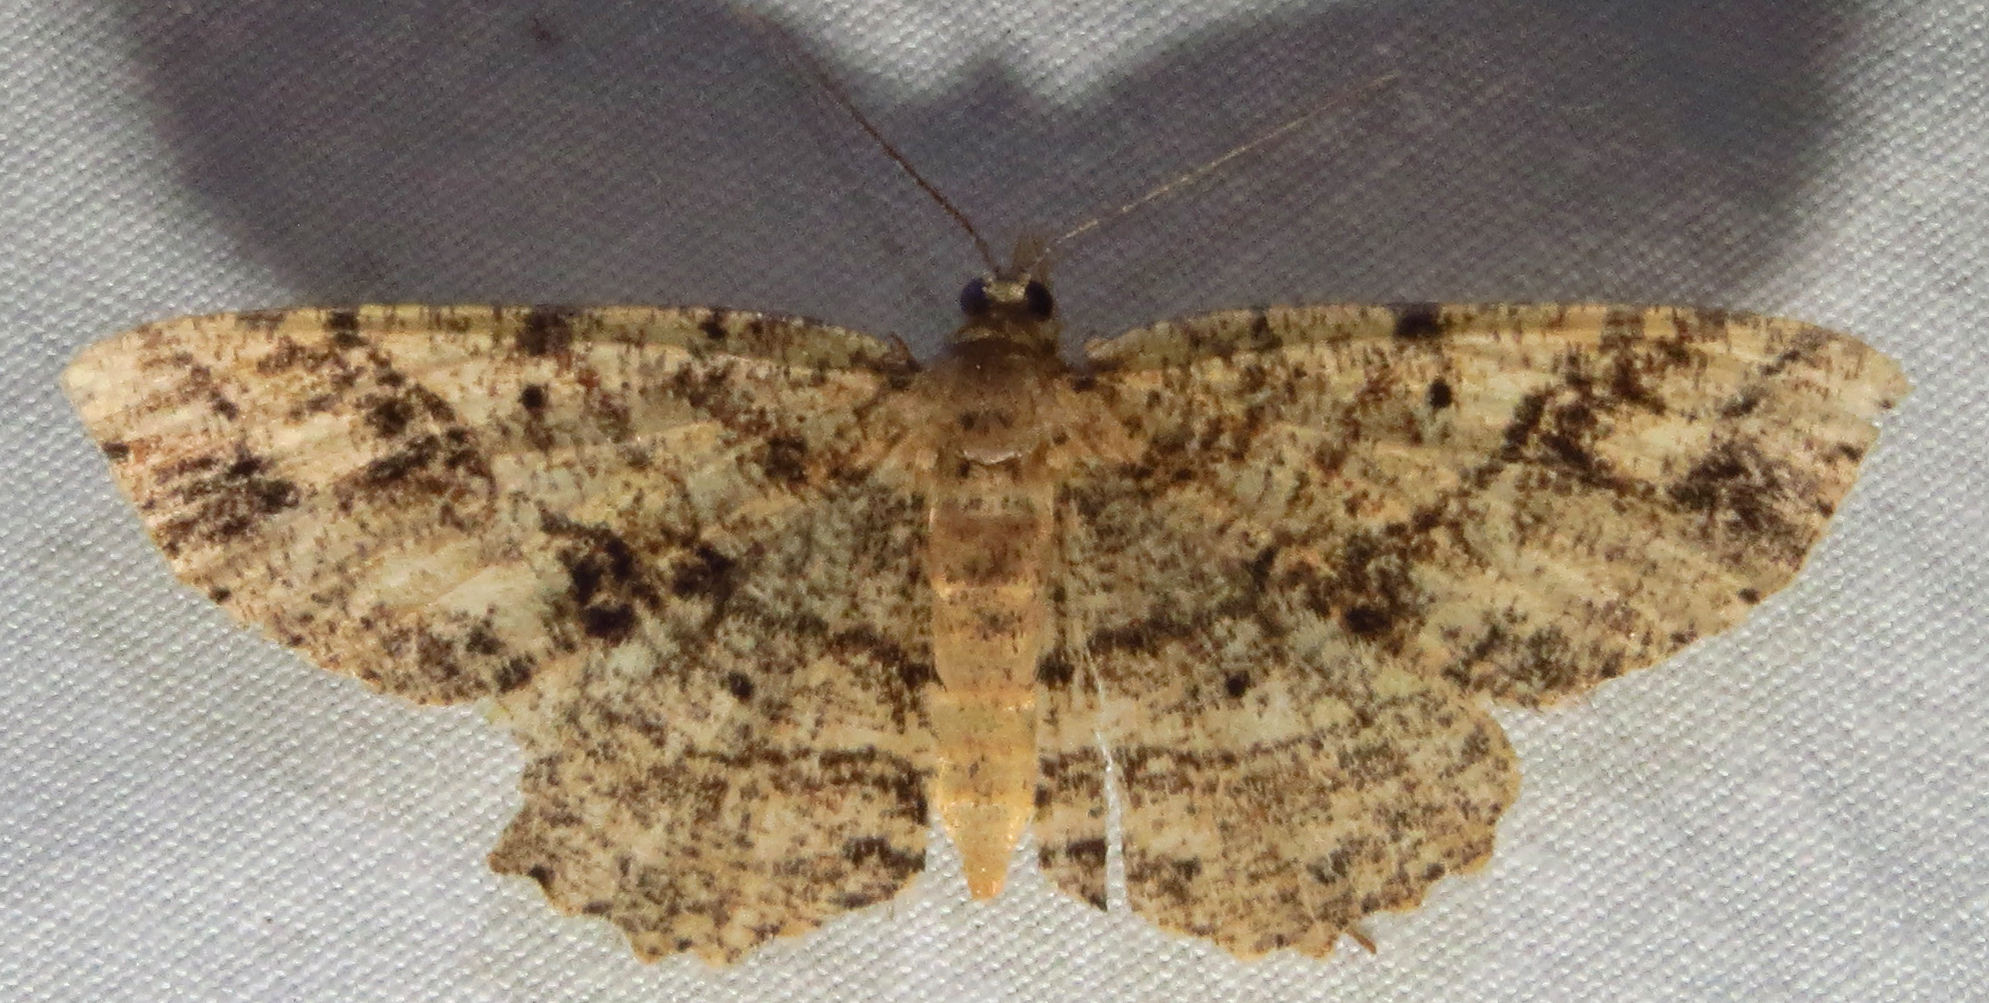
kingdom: Animalia
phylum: Arthropoda
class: Insecta
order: Lepidoptera
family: Geometridae
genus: Melanolophia
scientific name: Melanolophia canadaria
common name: Canadian melanolophia
